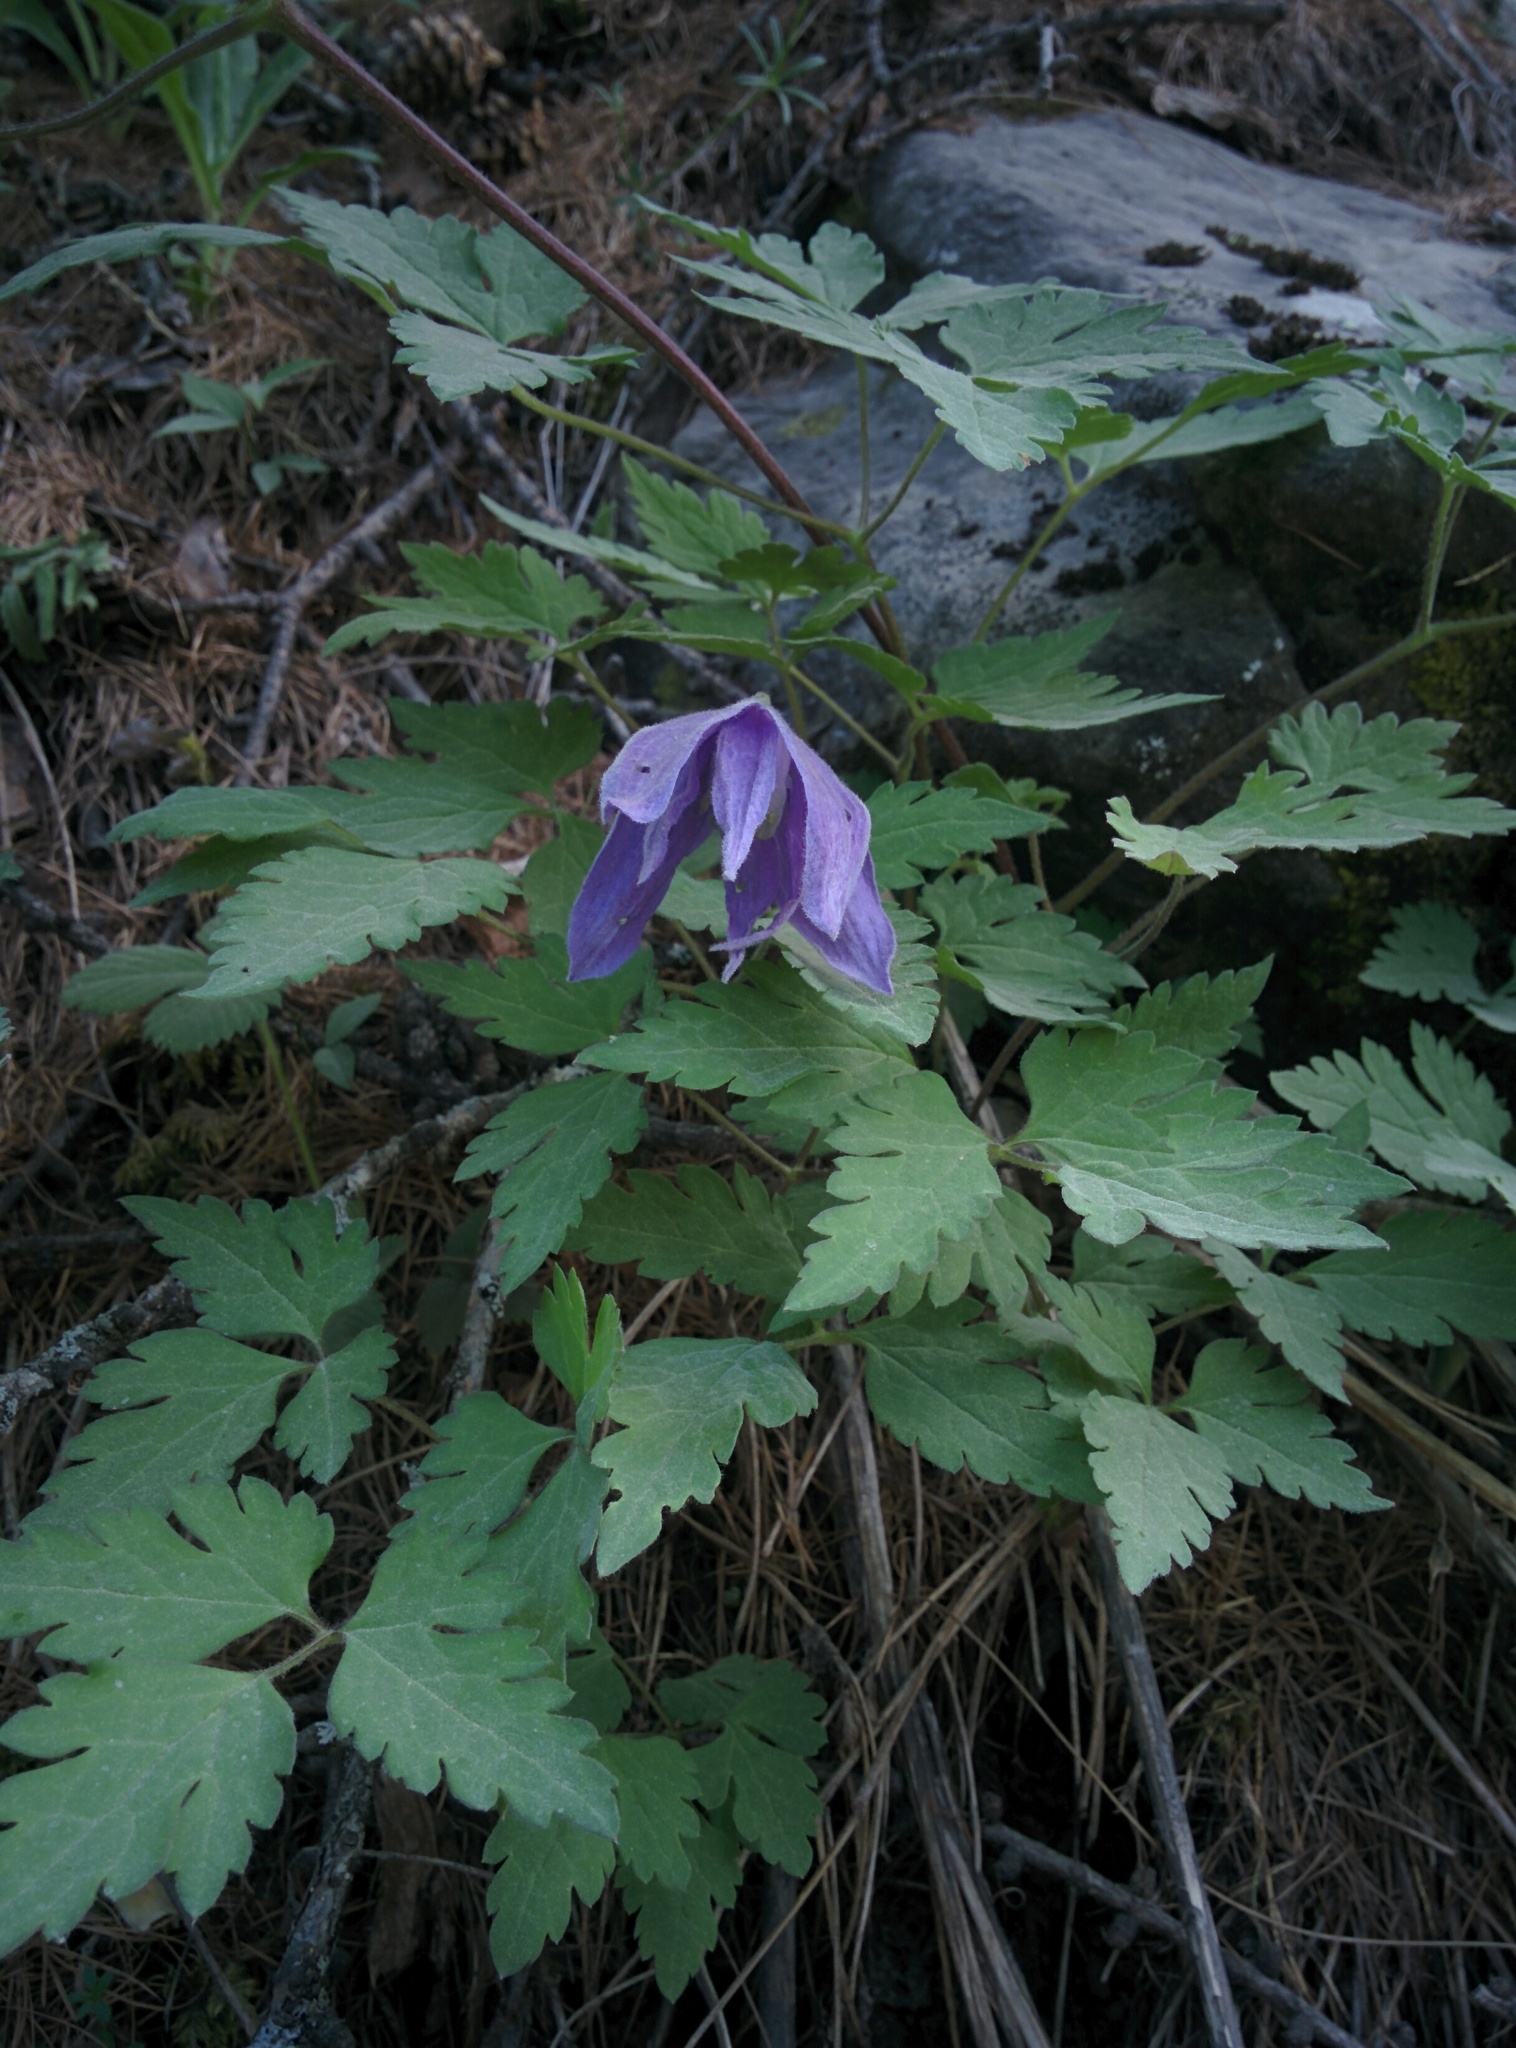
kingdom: Plantae
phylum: Tracheophyta
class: Magnoliopsida
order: Ranunculales
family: Ranunculaceae
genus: Clematis
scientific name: Clematis alpina
